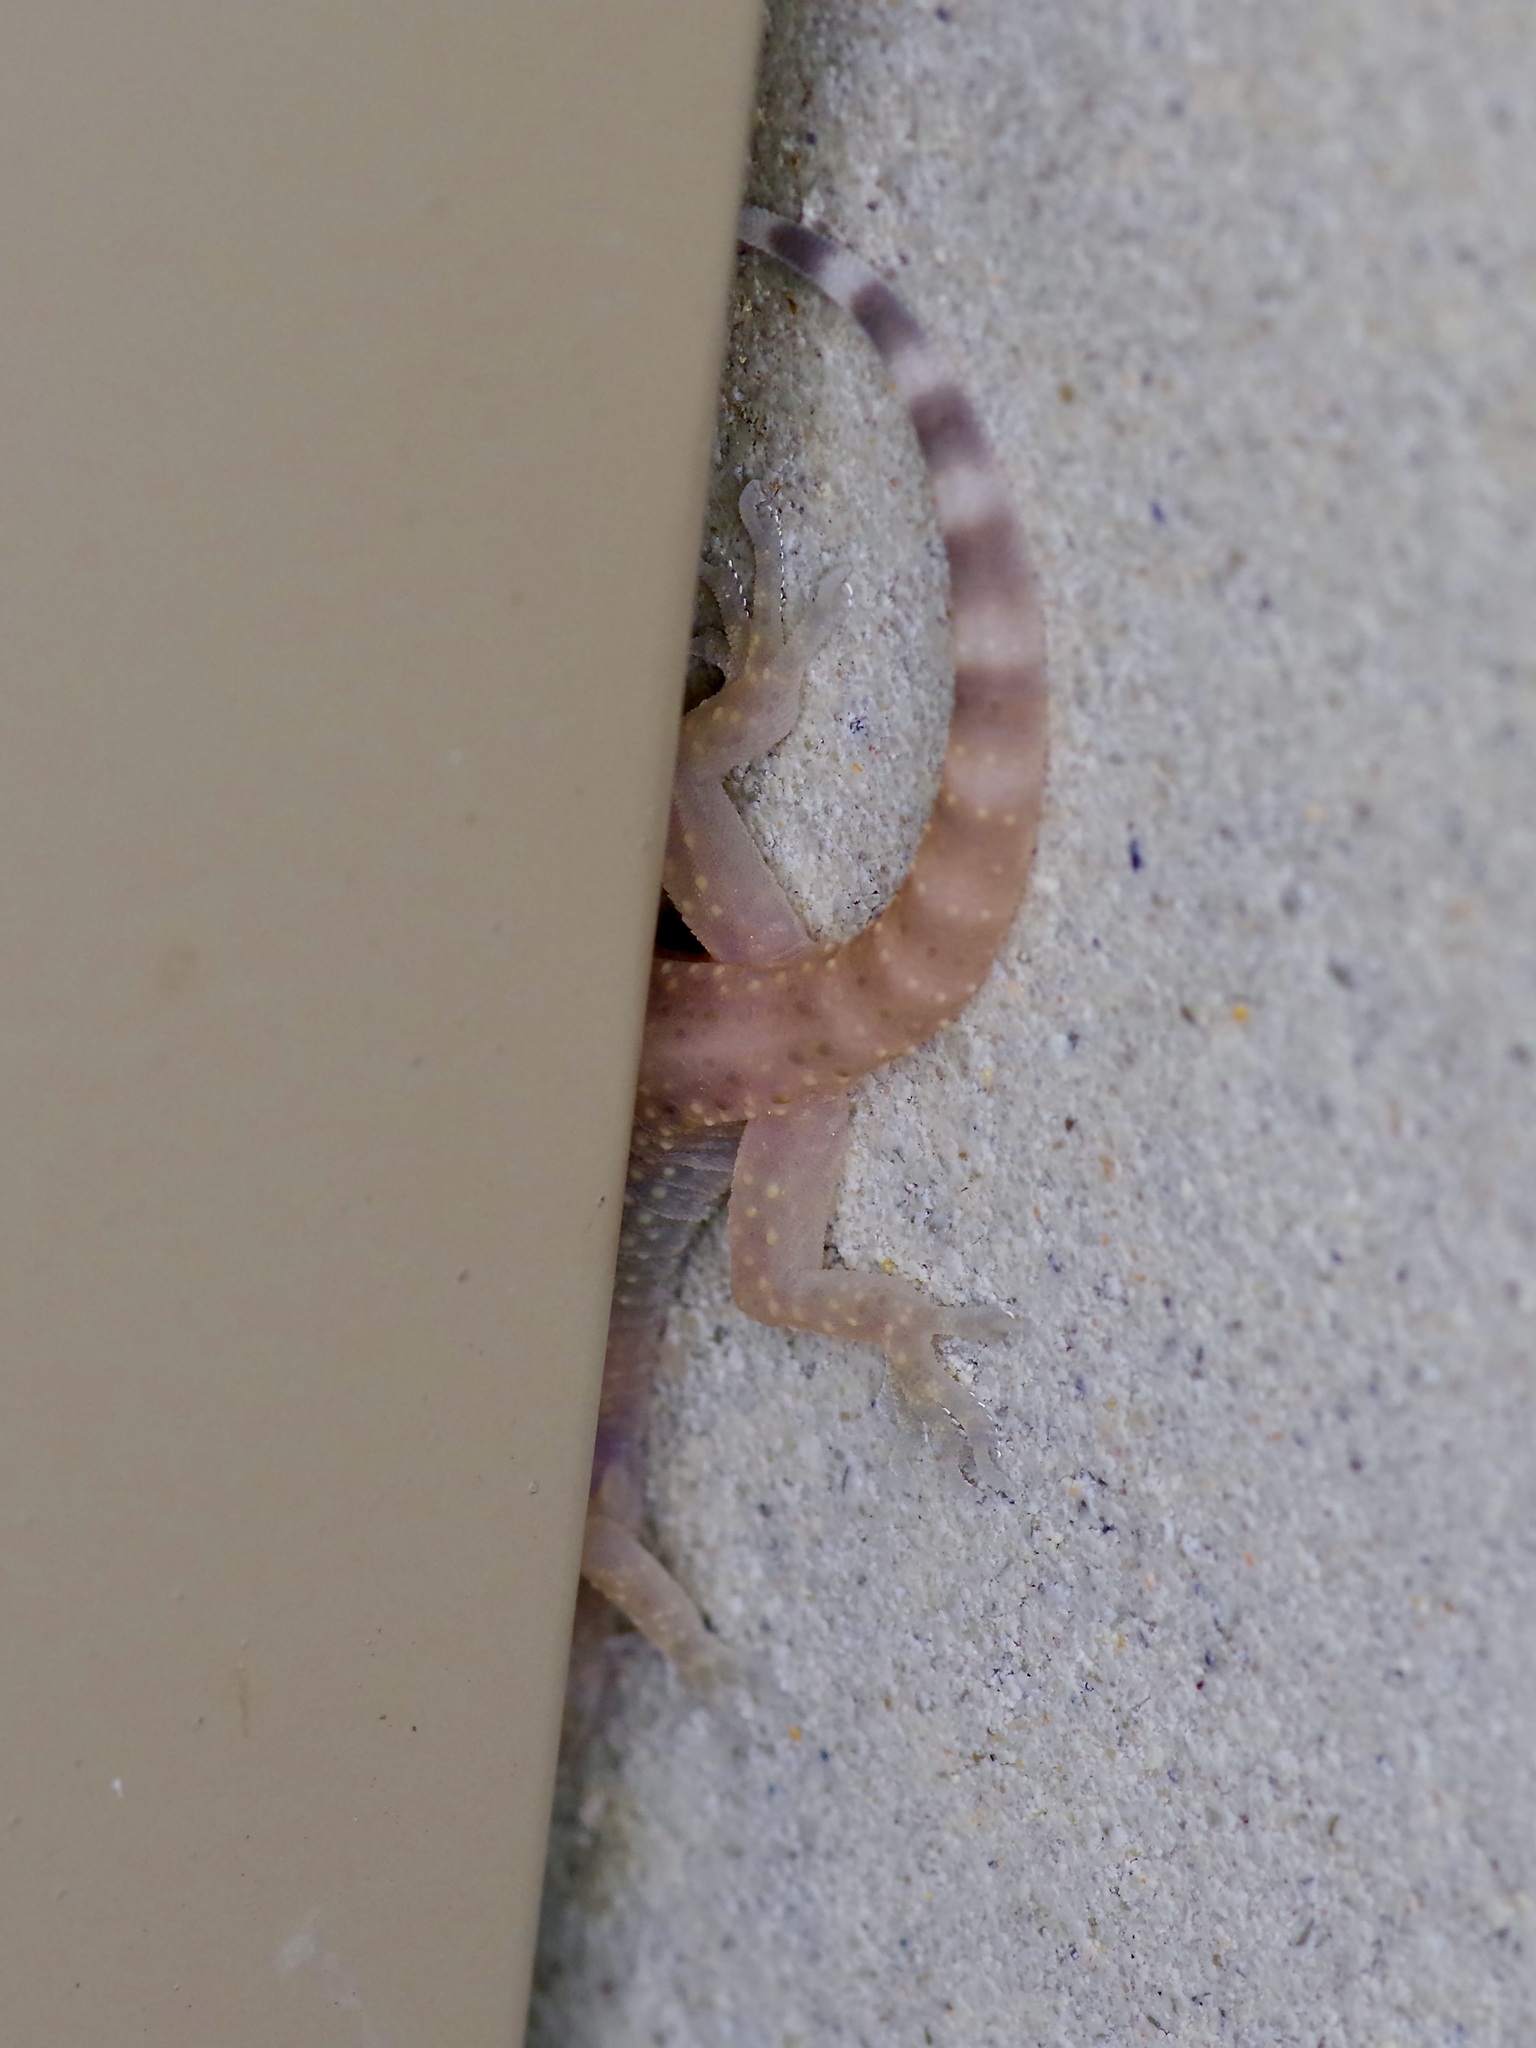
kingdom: Animalia
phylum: Chordata
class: Squamata
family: Gekkonidae
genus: Hemidactylus
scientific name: Hemidactylus turcicus
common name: Turkish gecko
